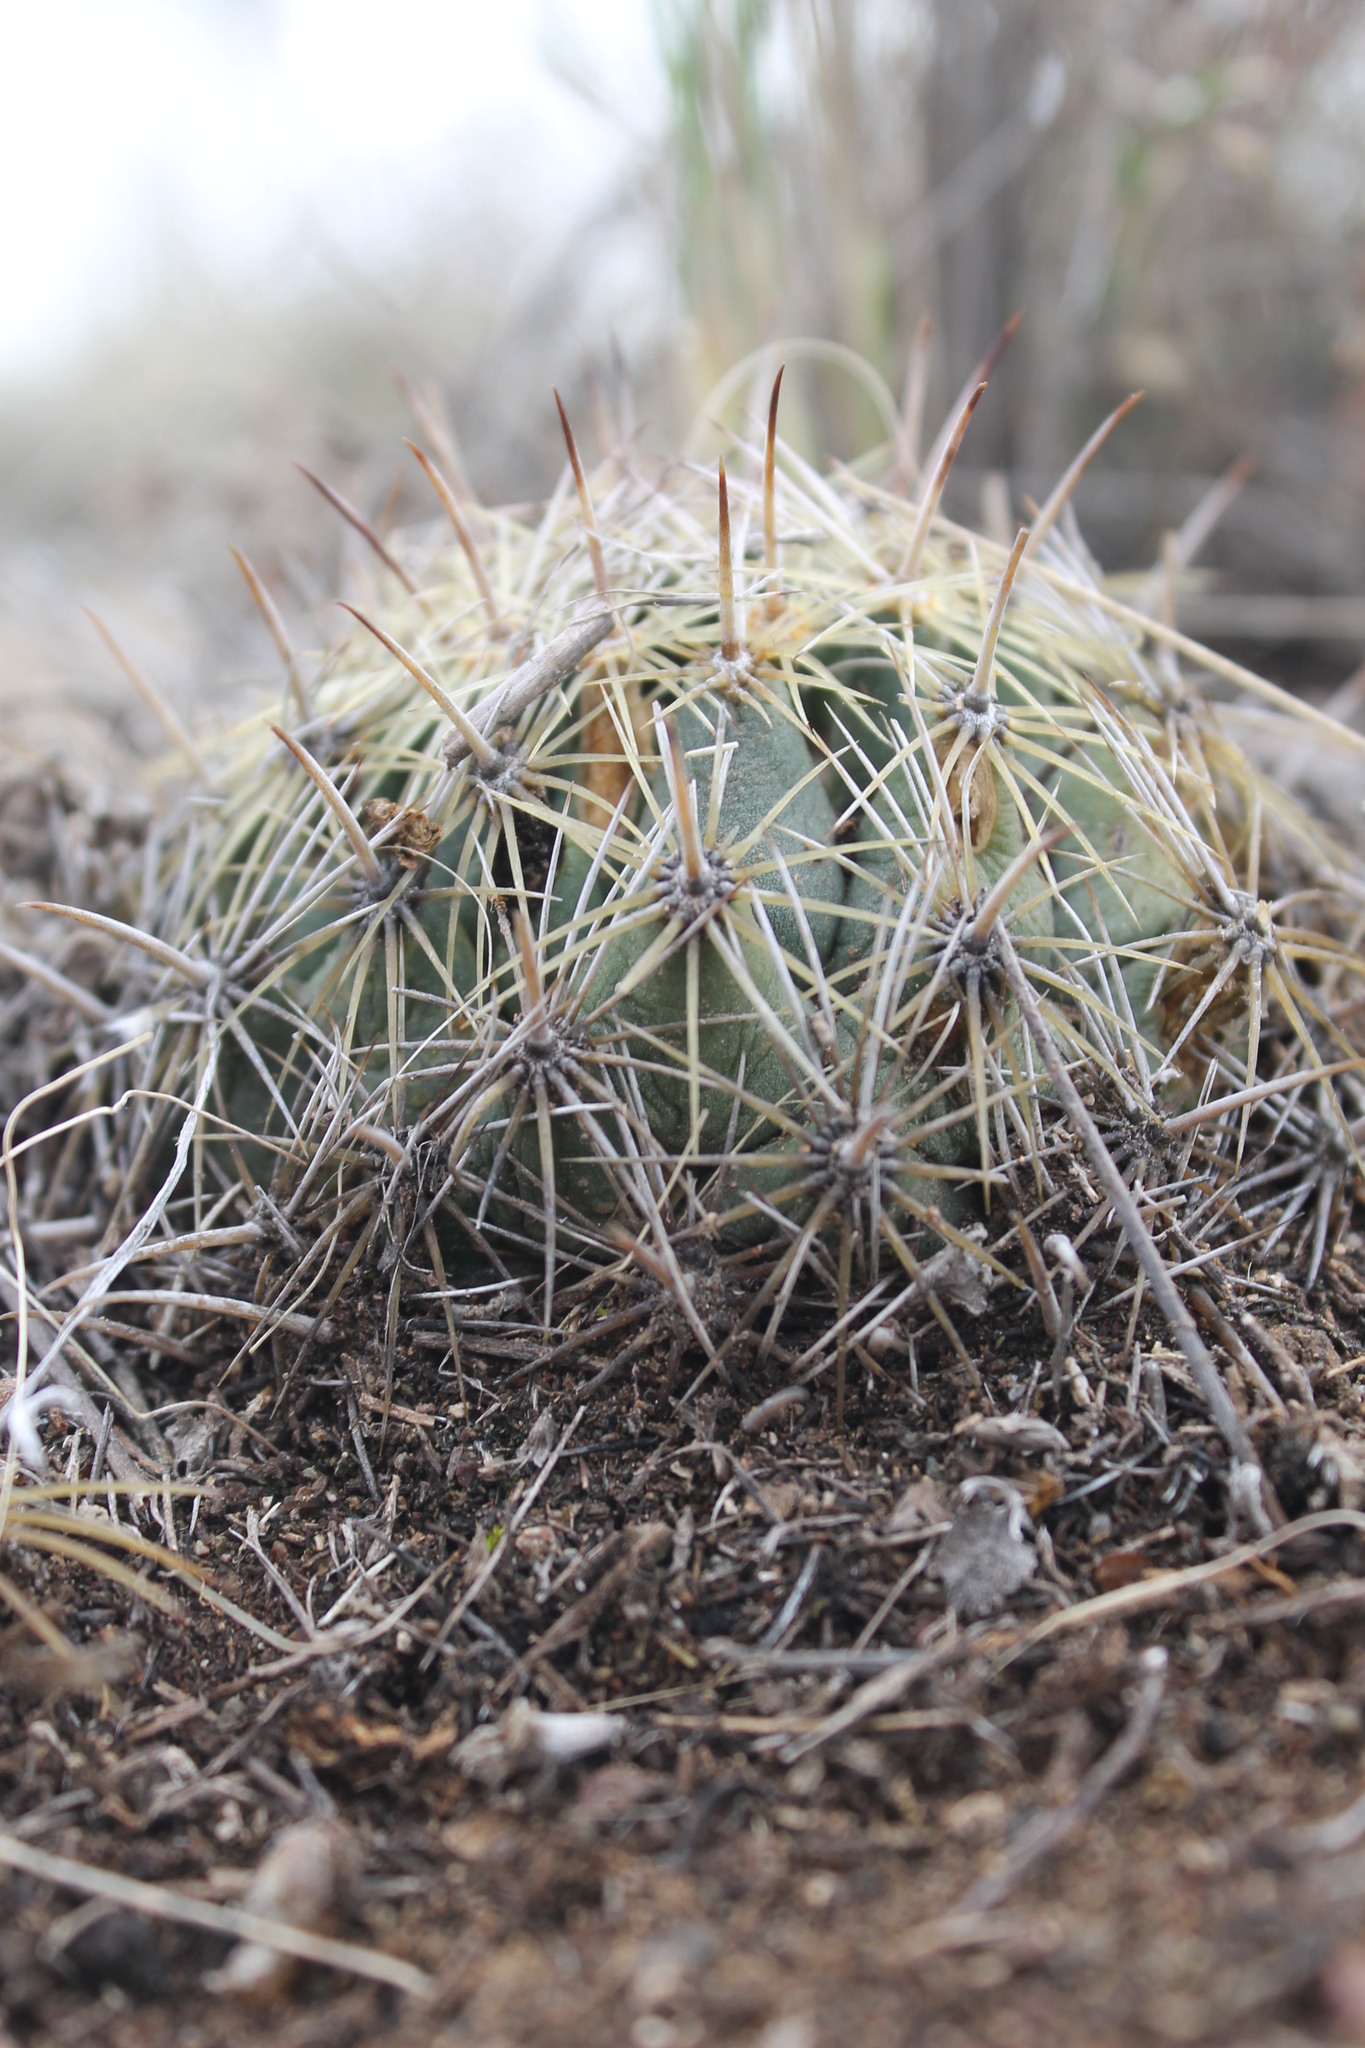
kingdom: Plantae
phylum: Tracheophyta
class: Magnoliopsida
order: Caryophyllales
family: Cactaceae
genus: Coryphantha
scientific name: Coryphantha cornifera
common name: Rhinoceros cactus
